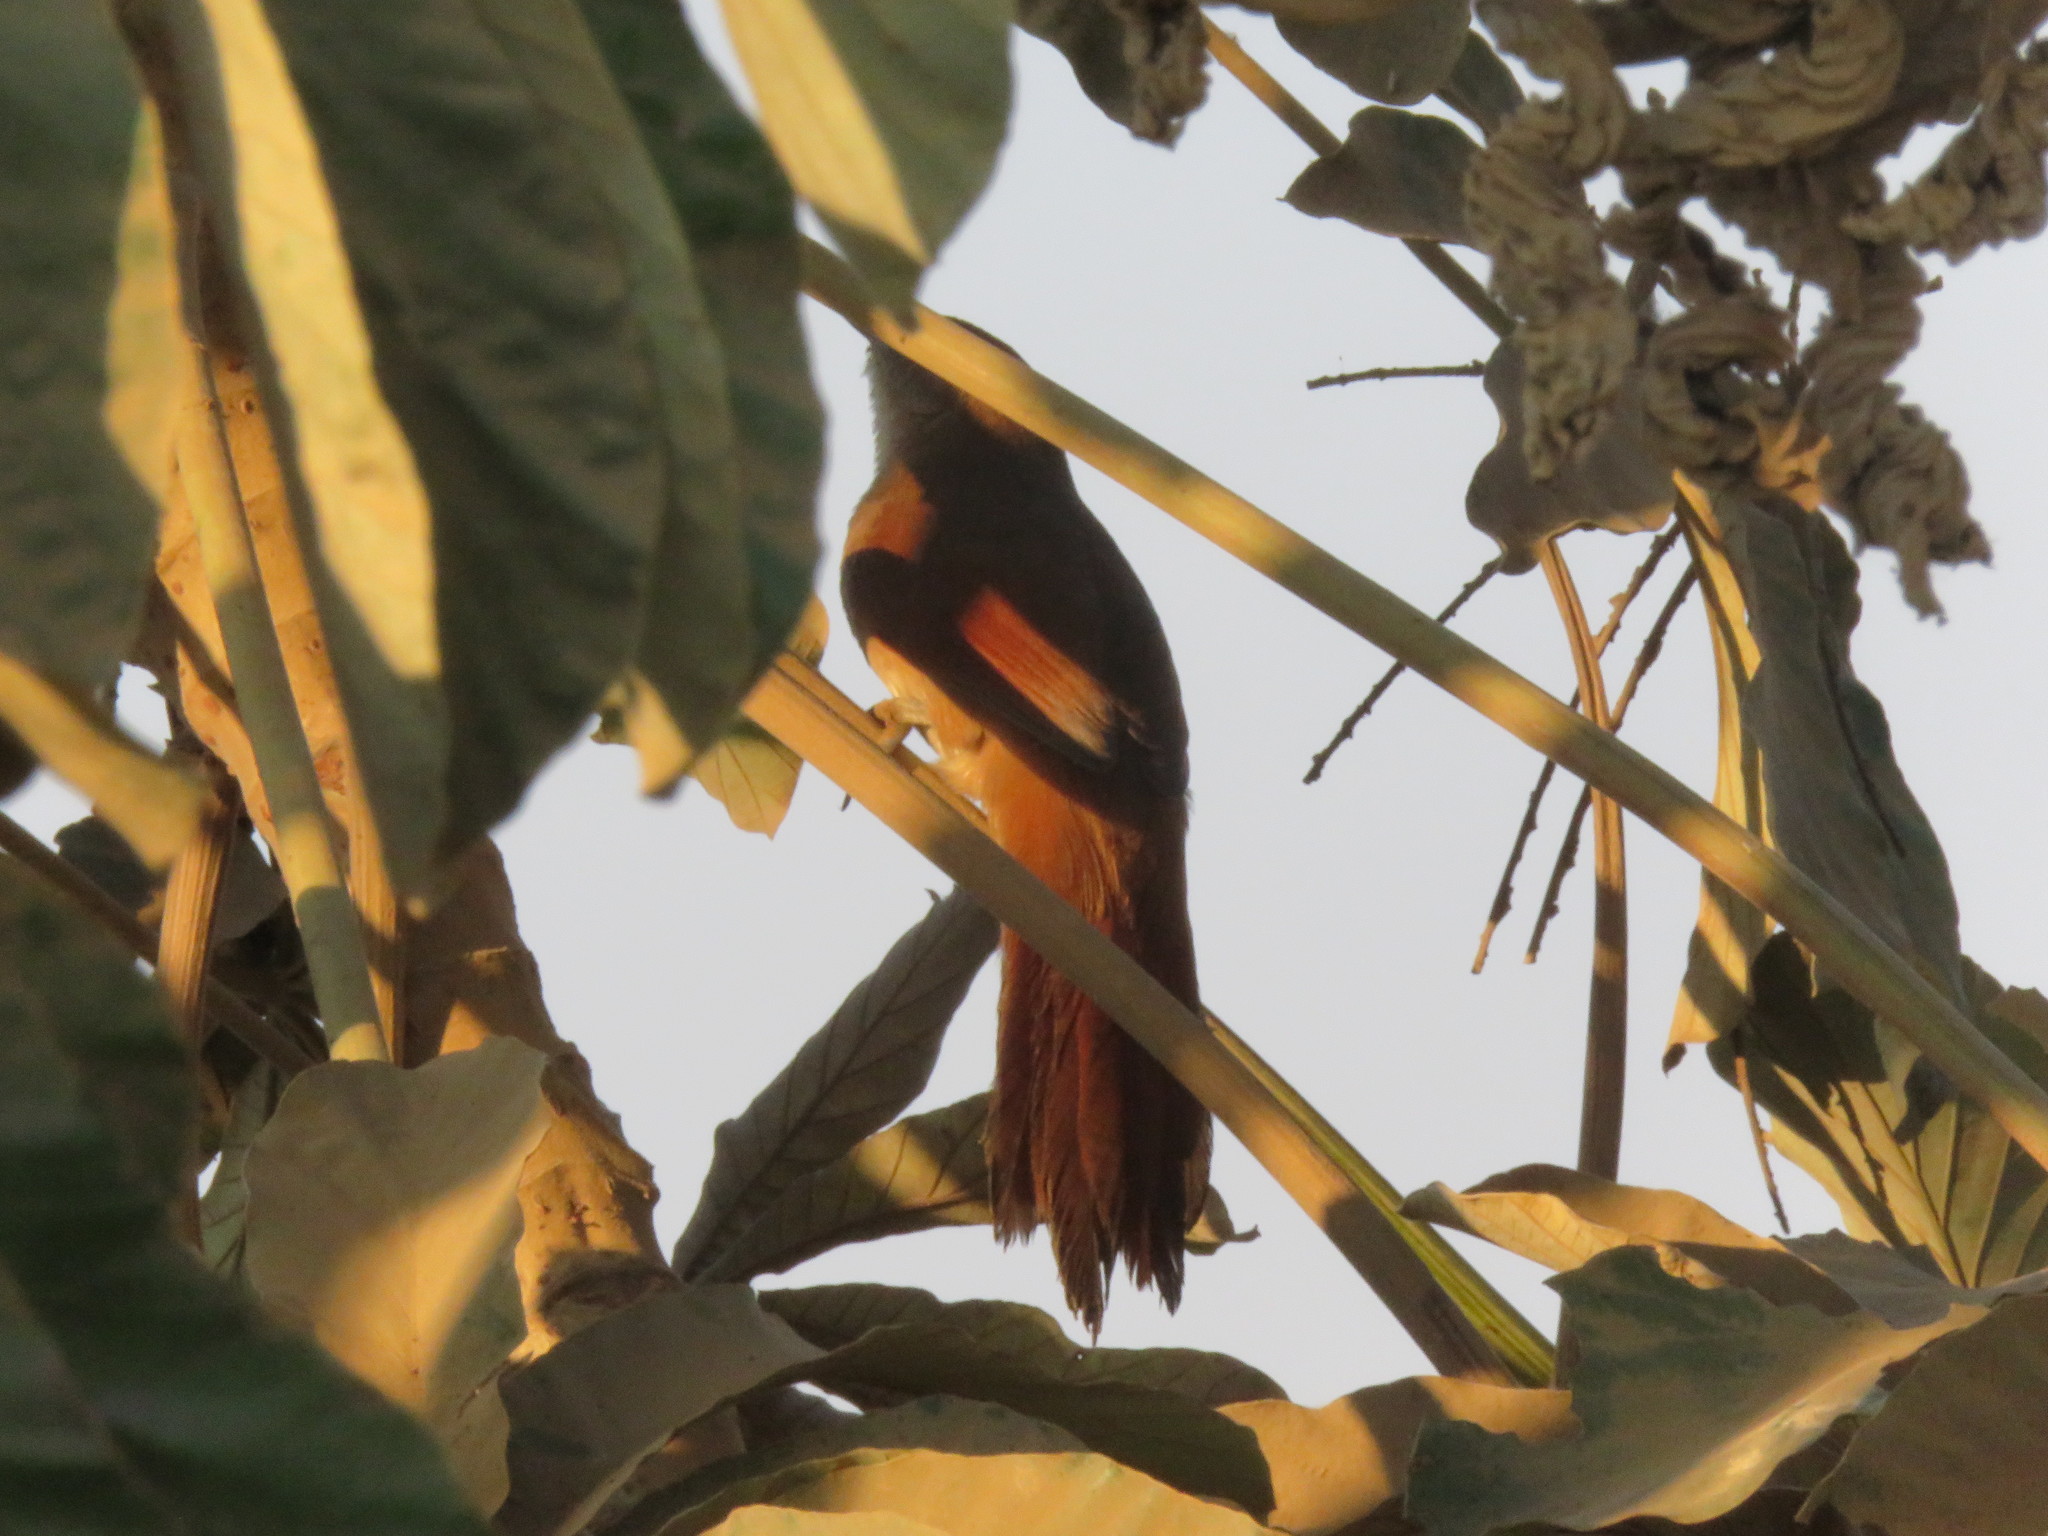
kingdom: Animalia
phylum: Chordata
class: Aves
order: Passeriformes
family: Furnariidae
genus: Phacellodomus
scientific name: Phacellodomus ruber
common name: Greater thornbird
